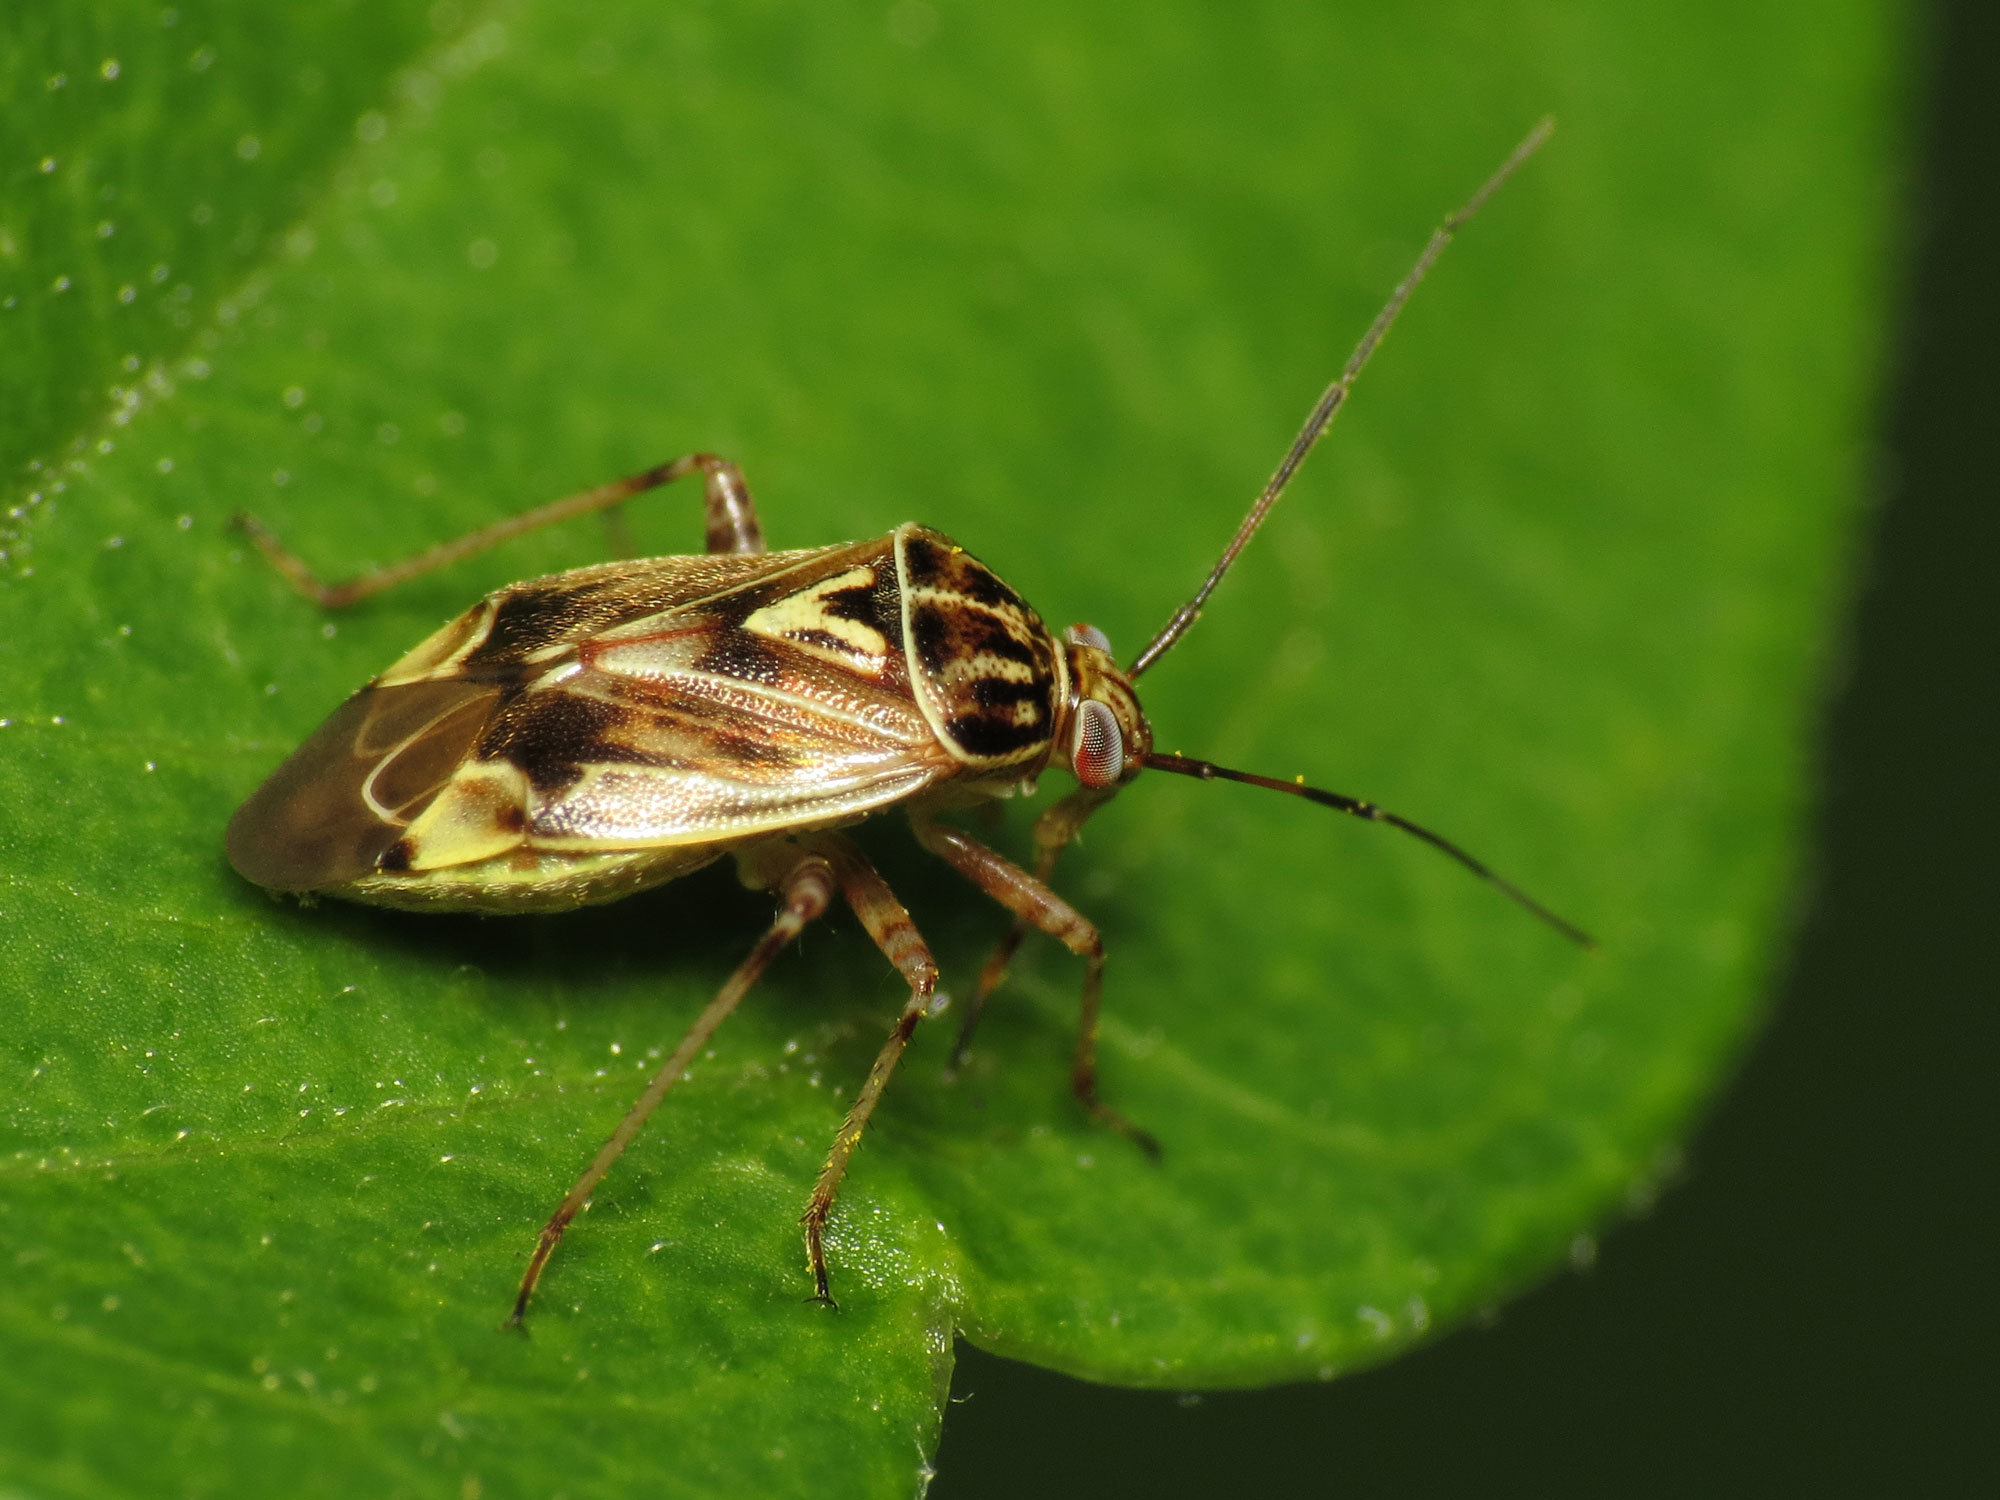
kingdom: Animalia
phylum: Arthropoda
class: Insecta
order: Hemiptera
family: Miridae
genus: Lygus
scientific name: Lygus lineolaris
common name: North american tarnished plant bug
